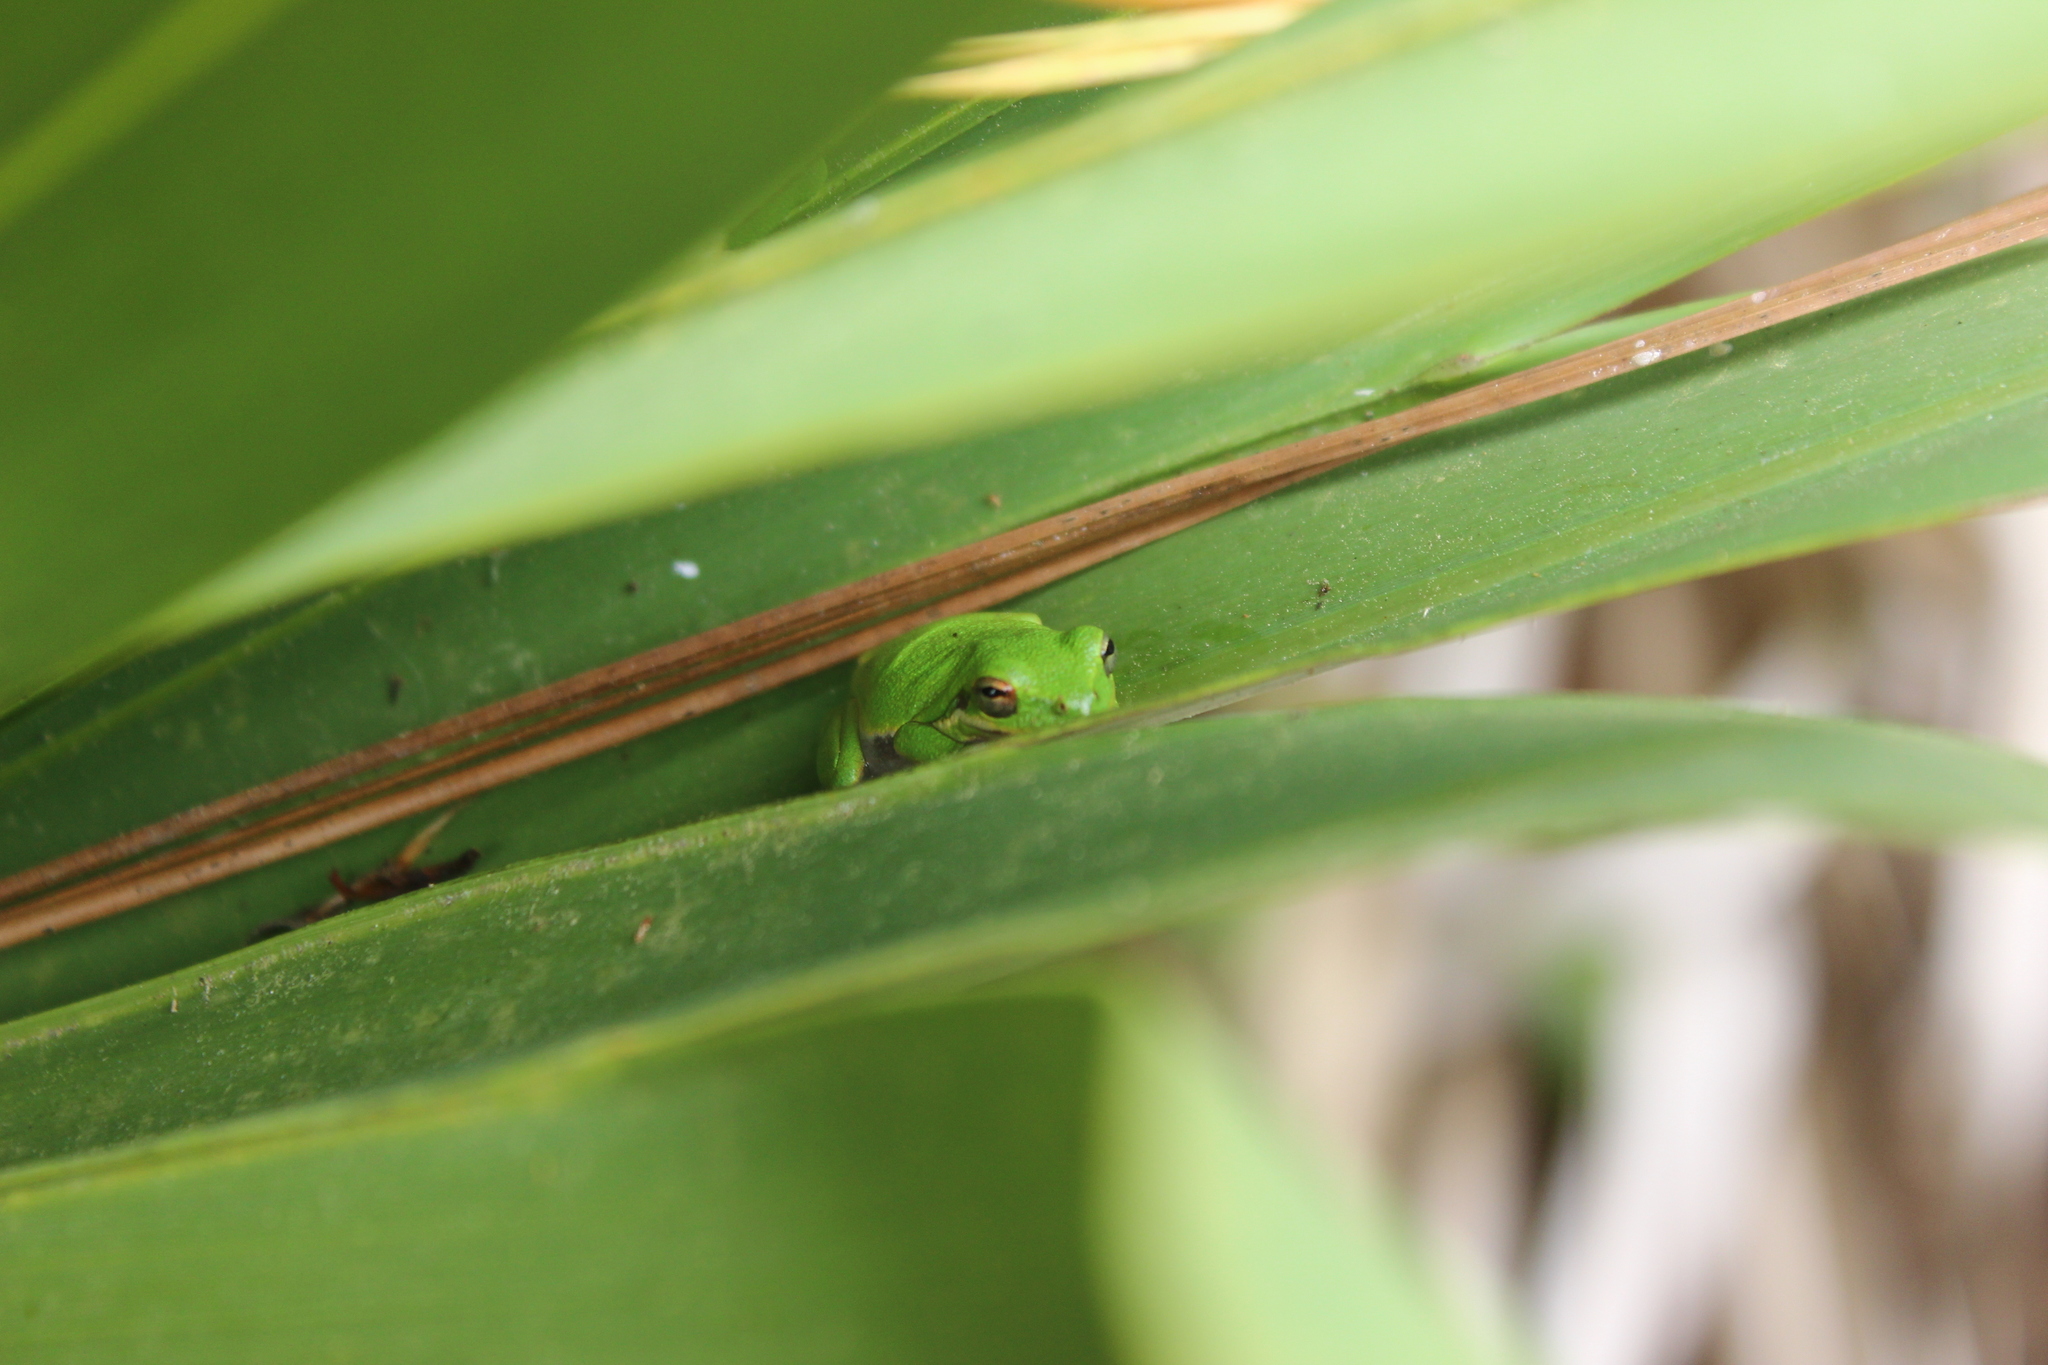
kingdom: Animalia
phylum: Chordata
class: Amphibia
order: Anura
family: Hylidae
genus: Dryophytes
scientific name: Dryophytes squirellus
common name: Squirrel treefrog
